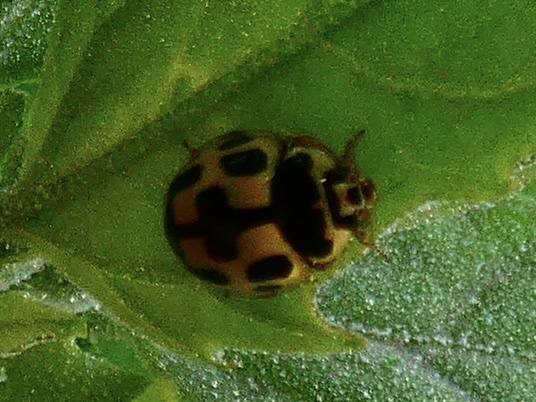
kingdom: Animalia
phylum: Arthropoda
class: Insecta
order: Coleoptera
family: Coccinellidae
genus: Propylaea
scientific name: Propylaea quatuordecimpunctata
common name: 14-spotted ladybird beetle
